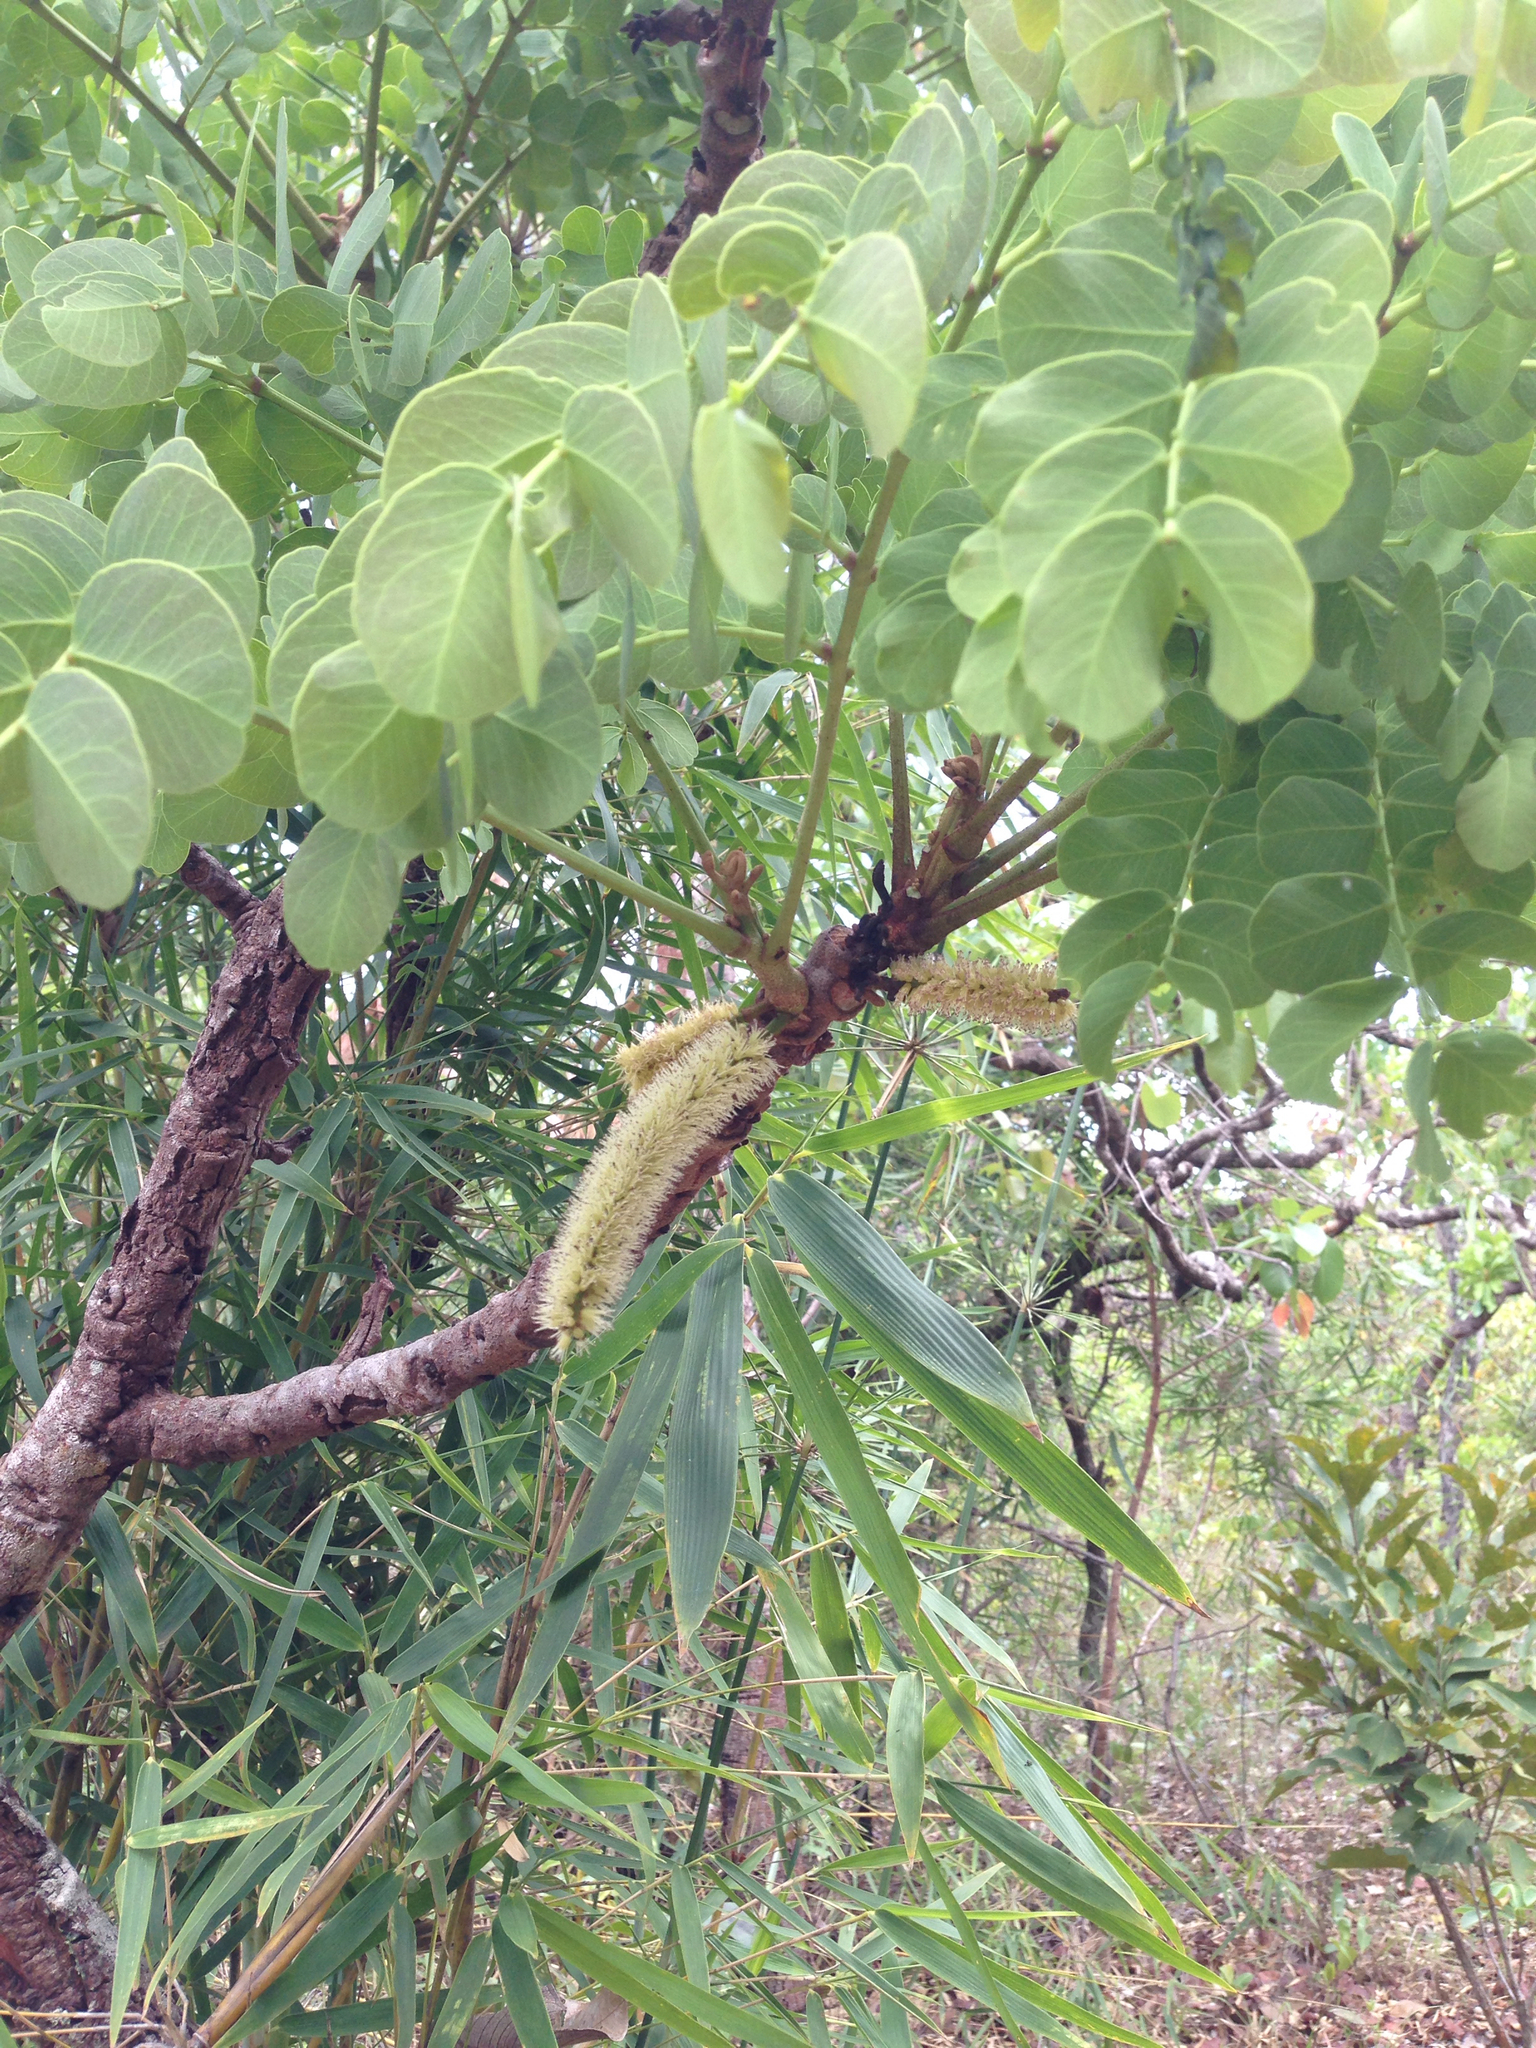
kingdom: Plantae
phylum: Tracheophyta
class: Magnoliopsida
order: Fabales
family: Fabaceae
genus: Stryphnodendron
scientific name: Stryphnodendron adstringens
